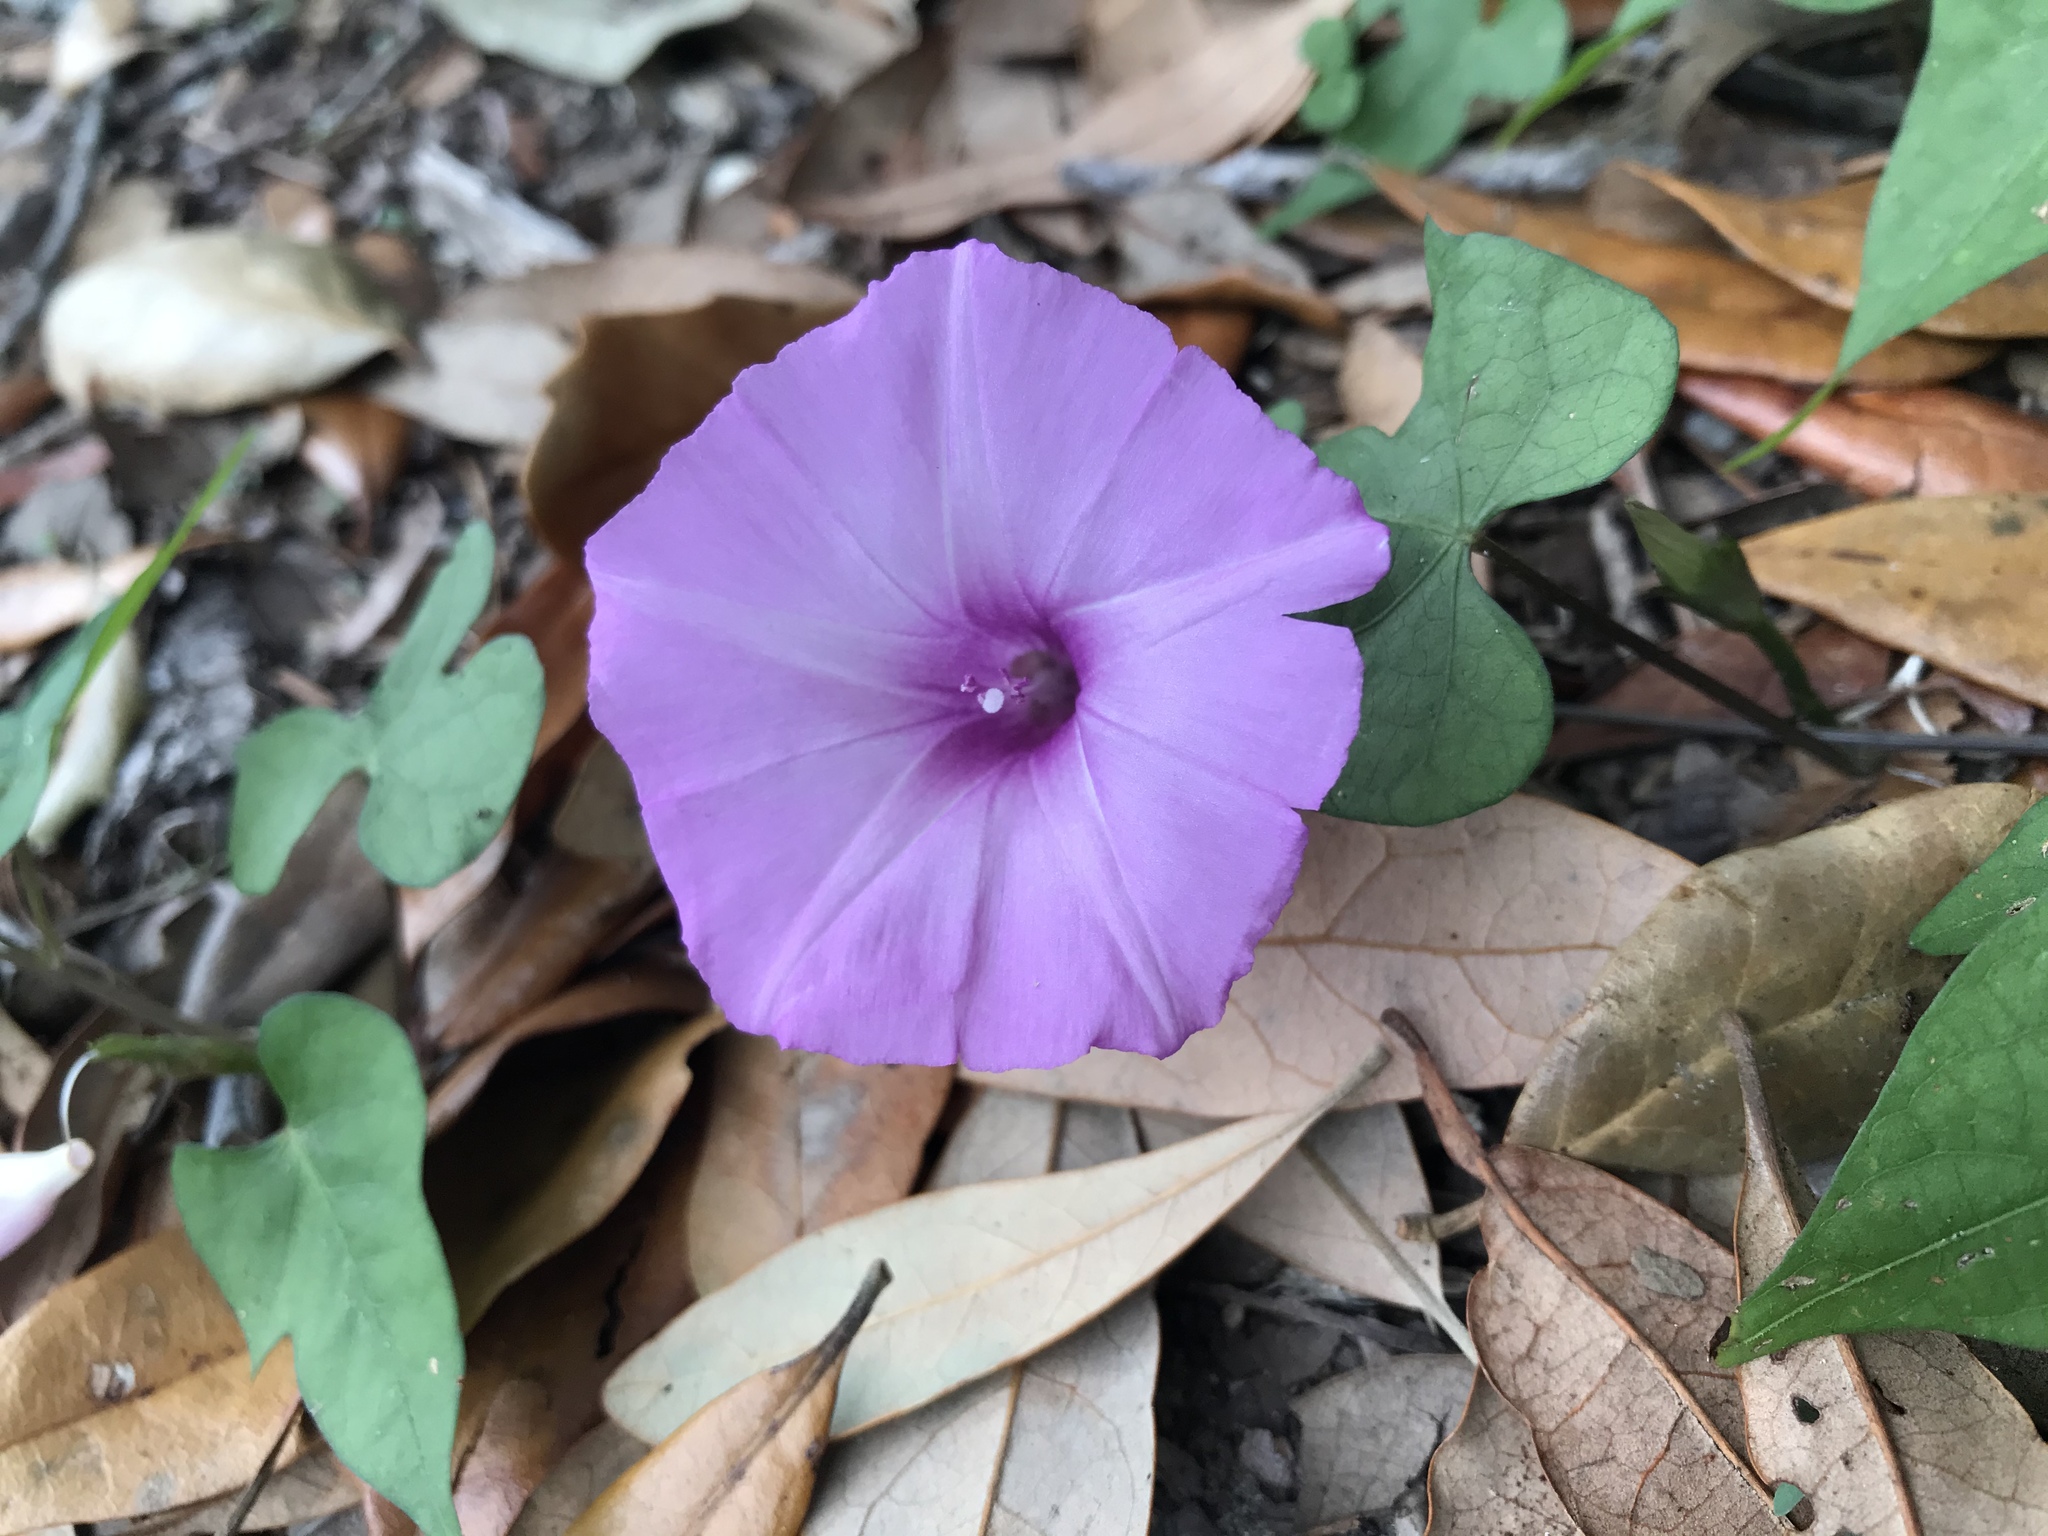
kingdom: Plantae
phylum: Tracheophyta
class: Magnoliopsida
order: Solanales
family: Convolvulaceae
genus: Ipomoea
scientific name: Ipomoea cordatotriloba
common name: Cotton morning glory
